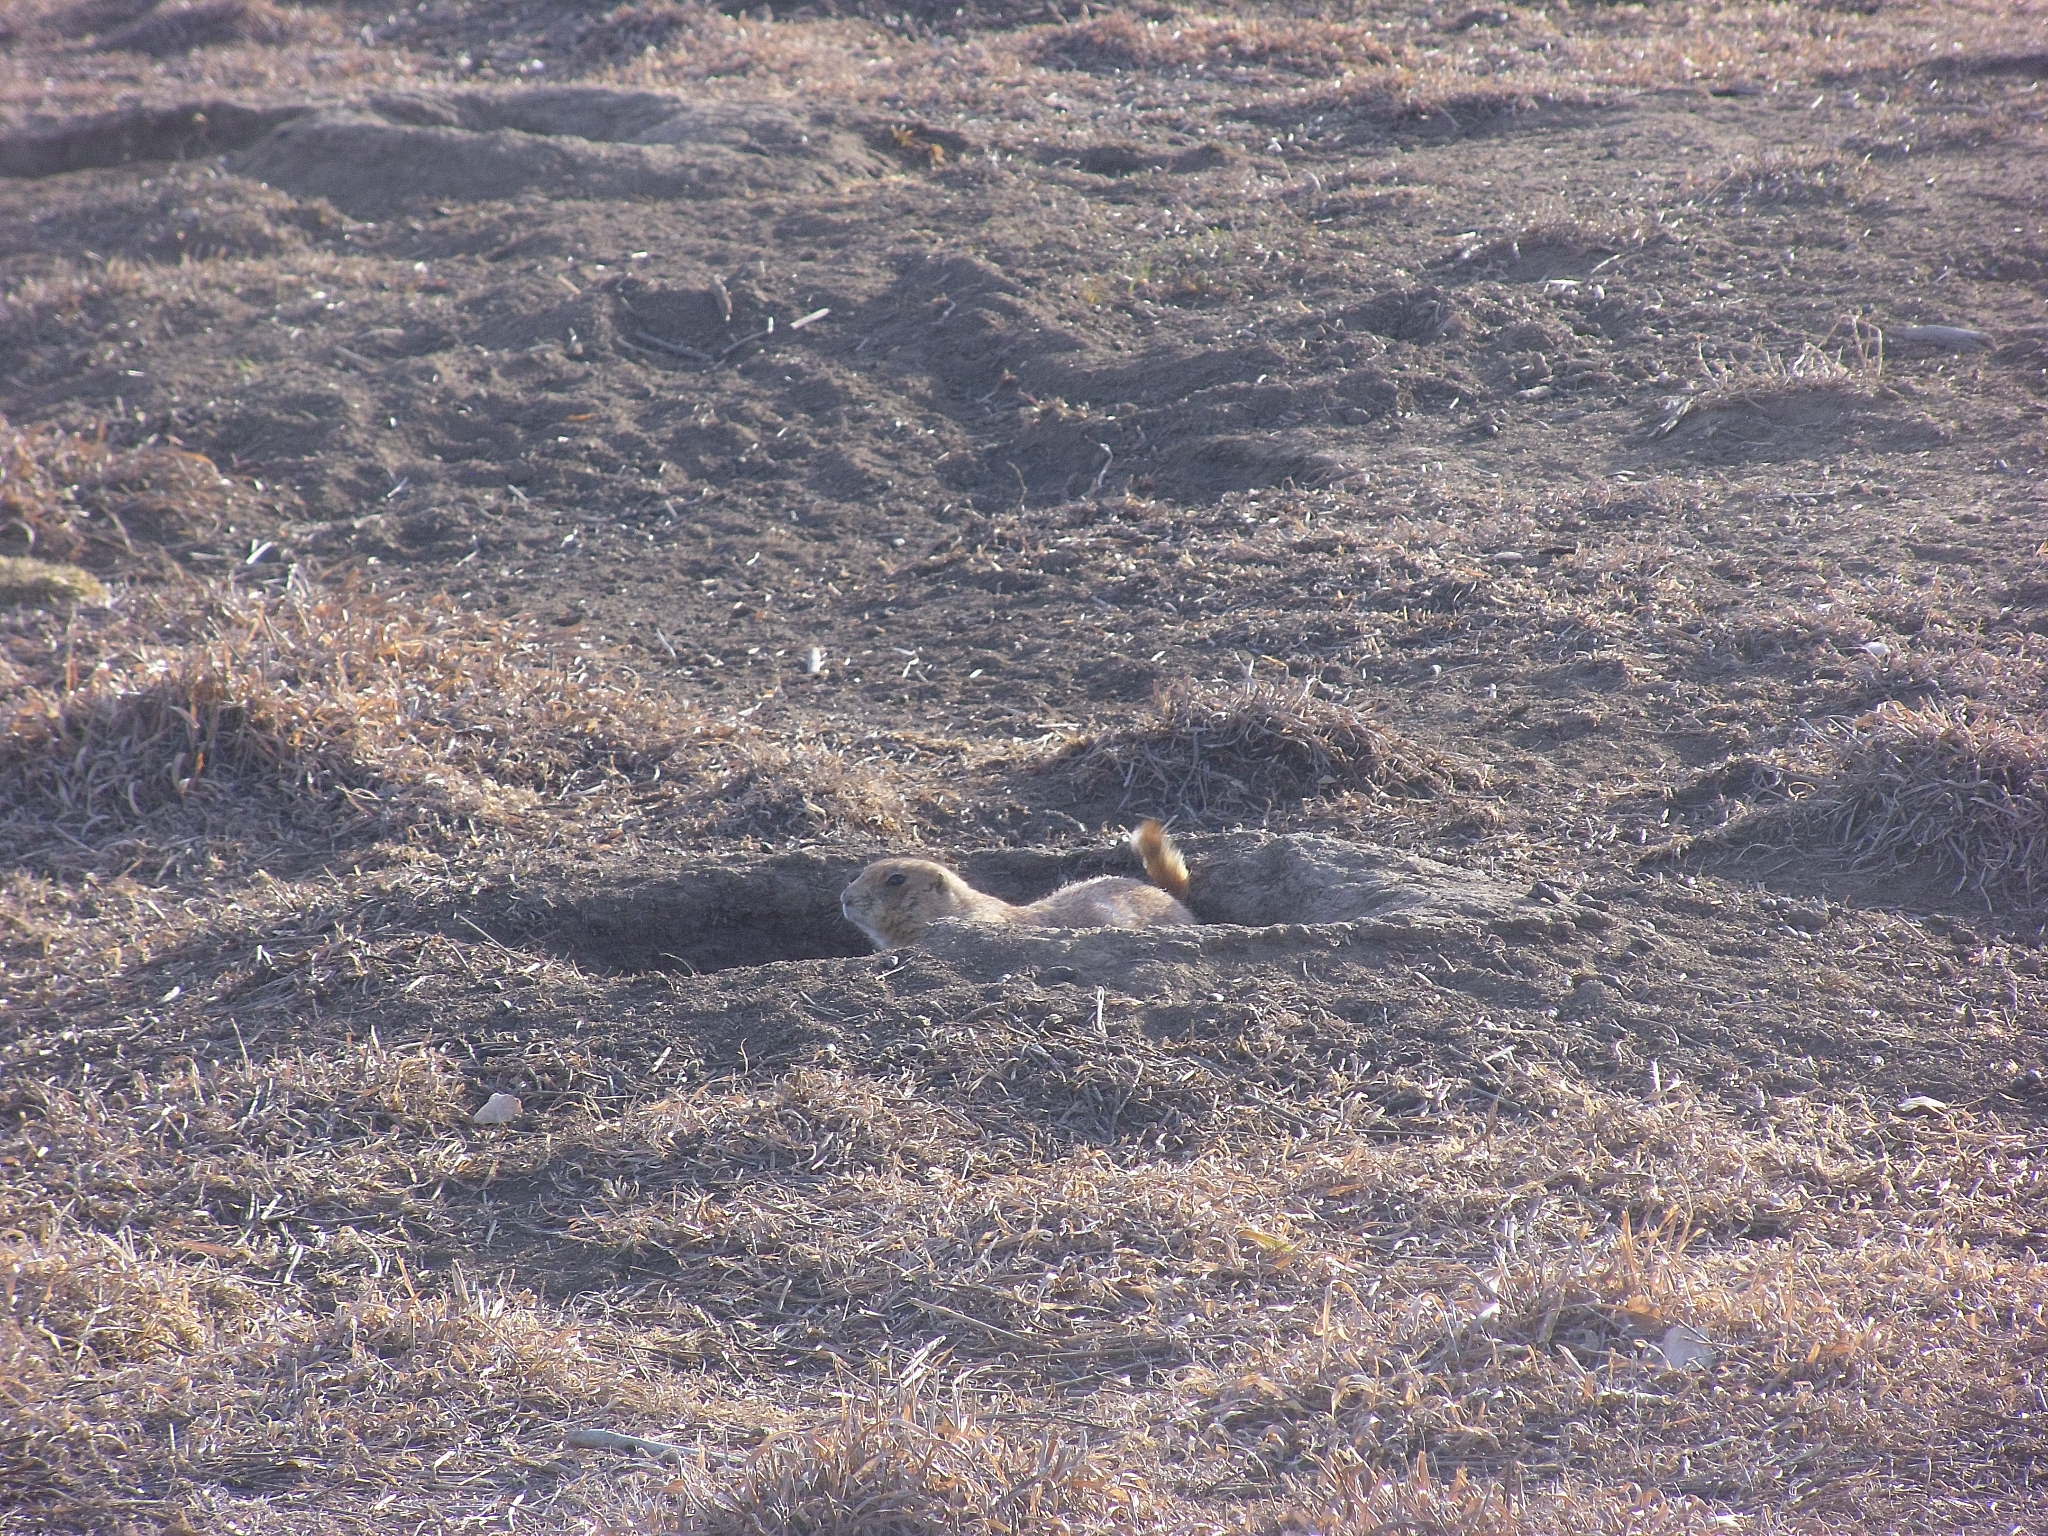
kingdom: Animalia
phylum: Chordata
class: Mammalia
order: Rodentia
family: Sciuridae
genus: Cynomys
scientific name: Cynomys ludovicianus
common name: Black-tailed prairie dog
